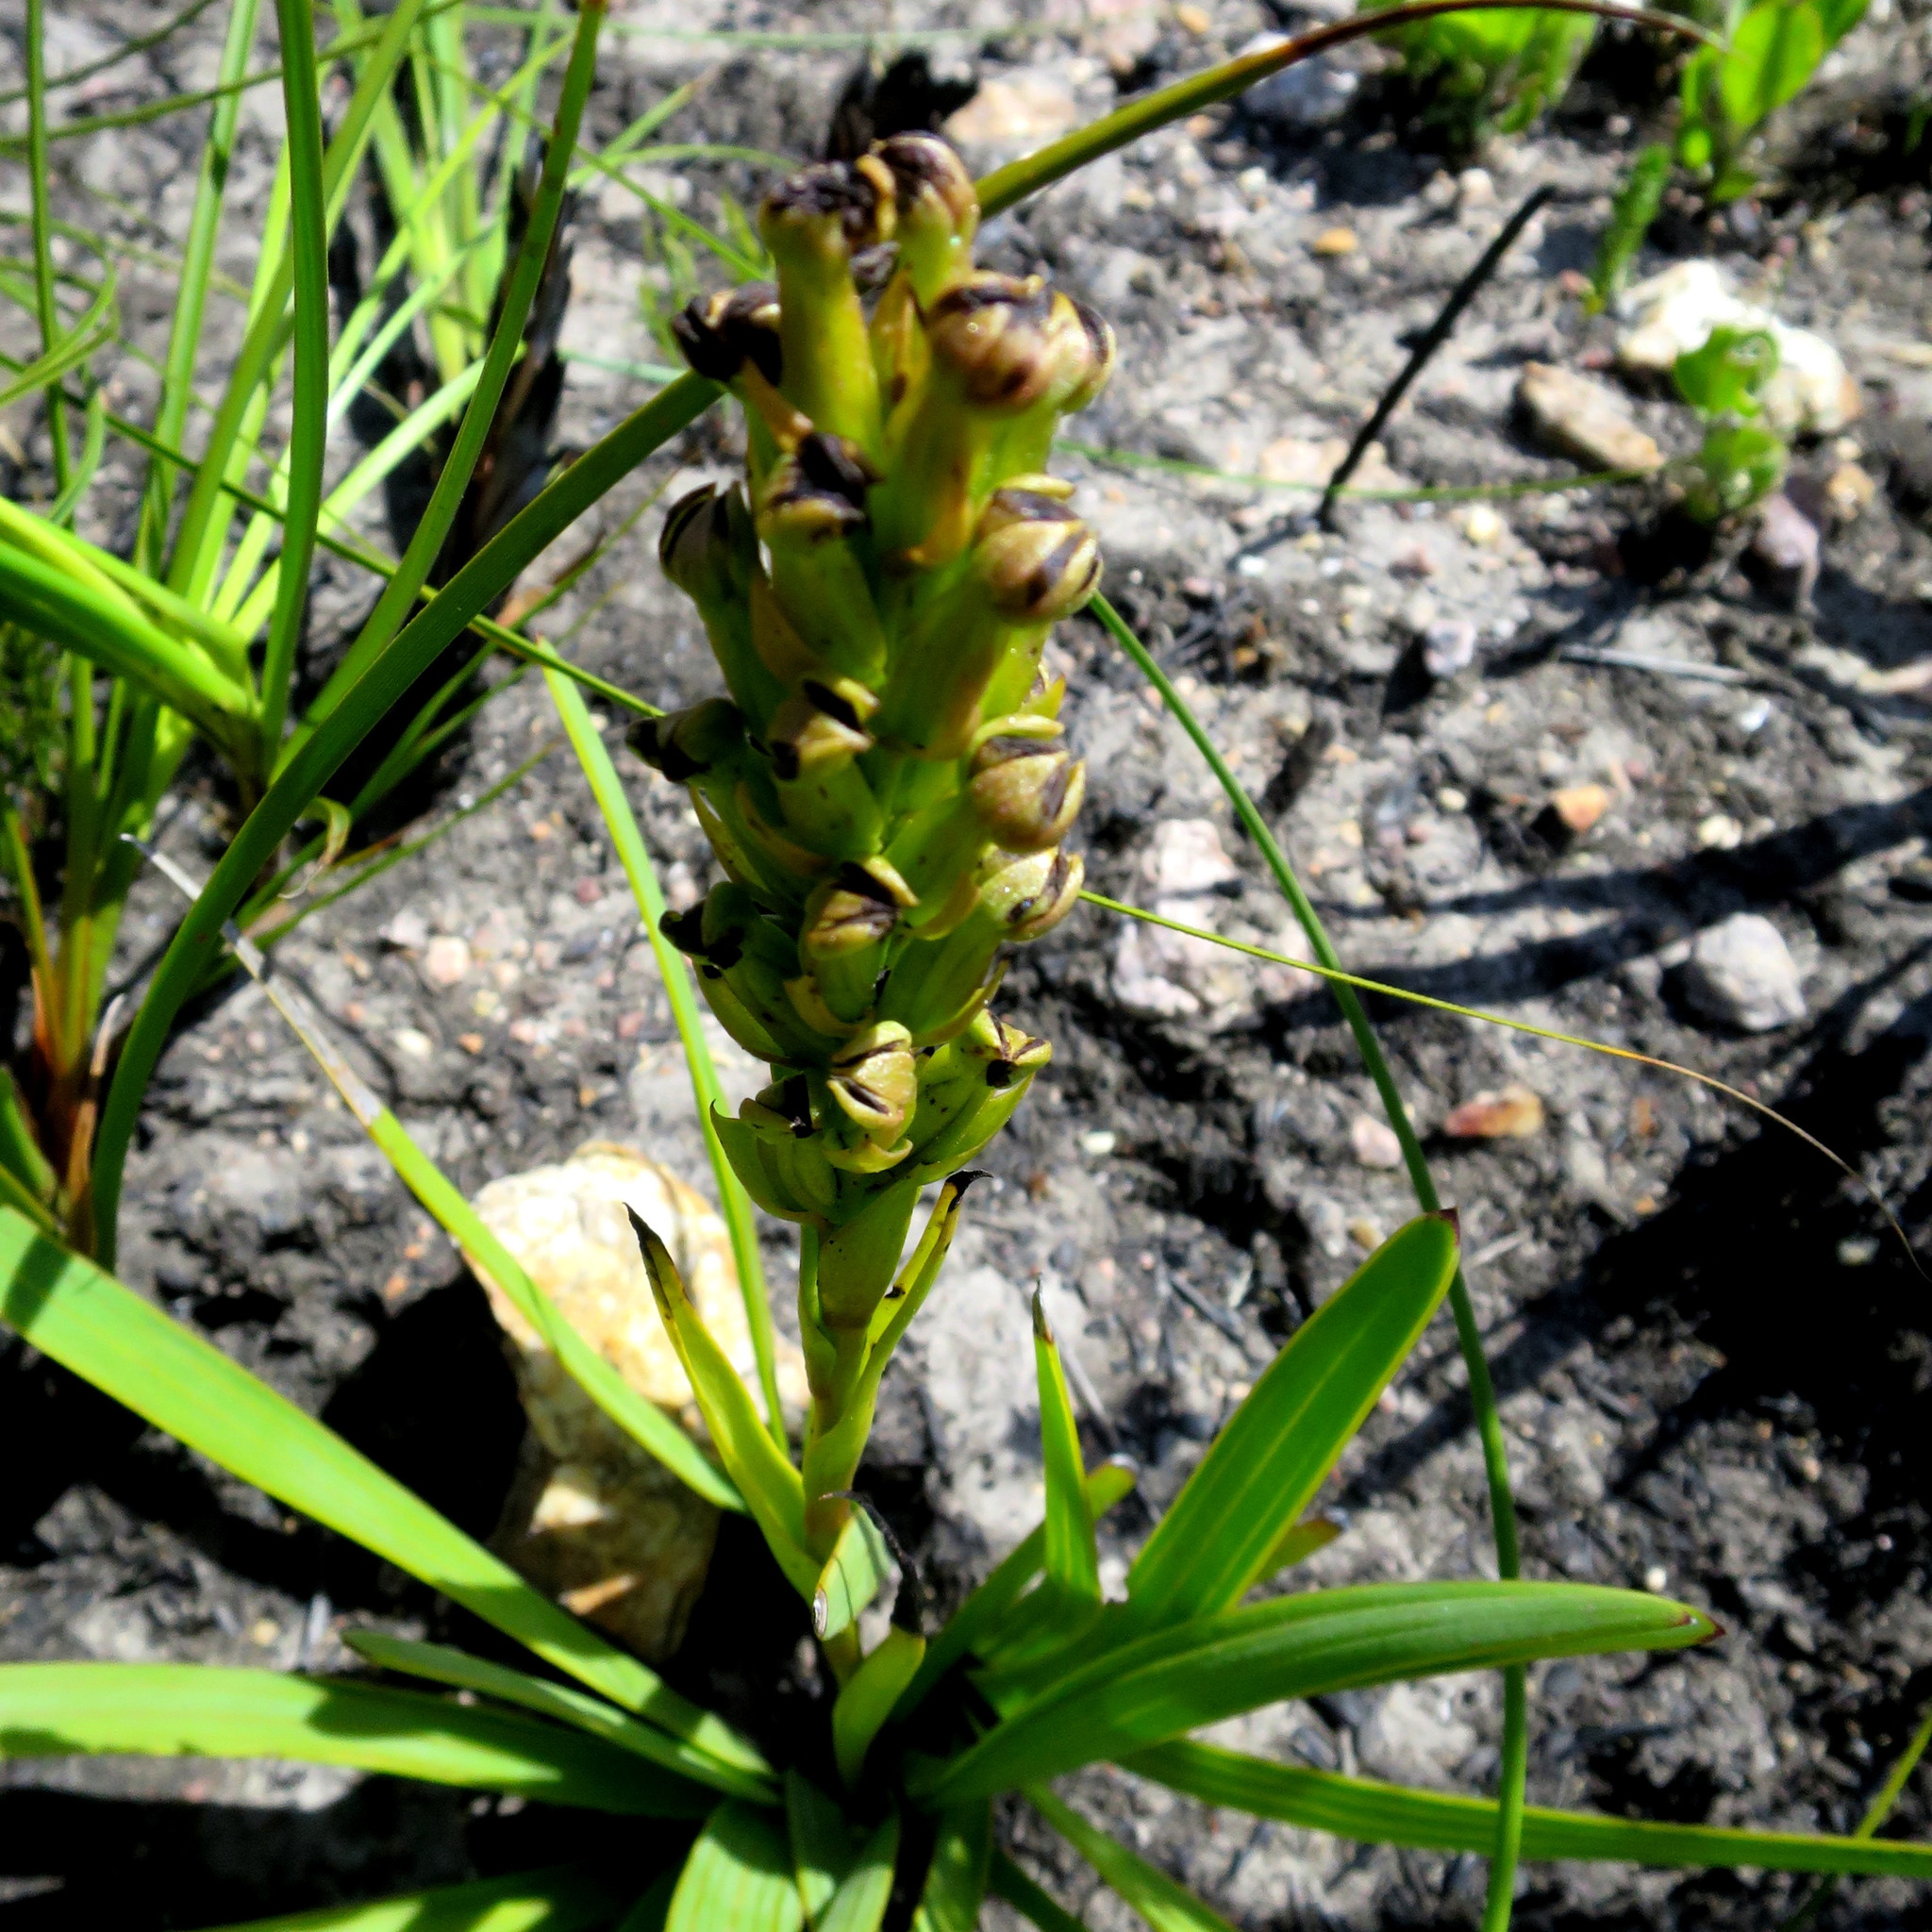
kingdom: Plantae
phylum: Tracheophyta
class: Liliopsida
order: Asparagales
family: Orchidaceae
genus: Evotella
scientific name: Evotella carnosa
